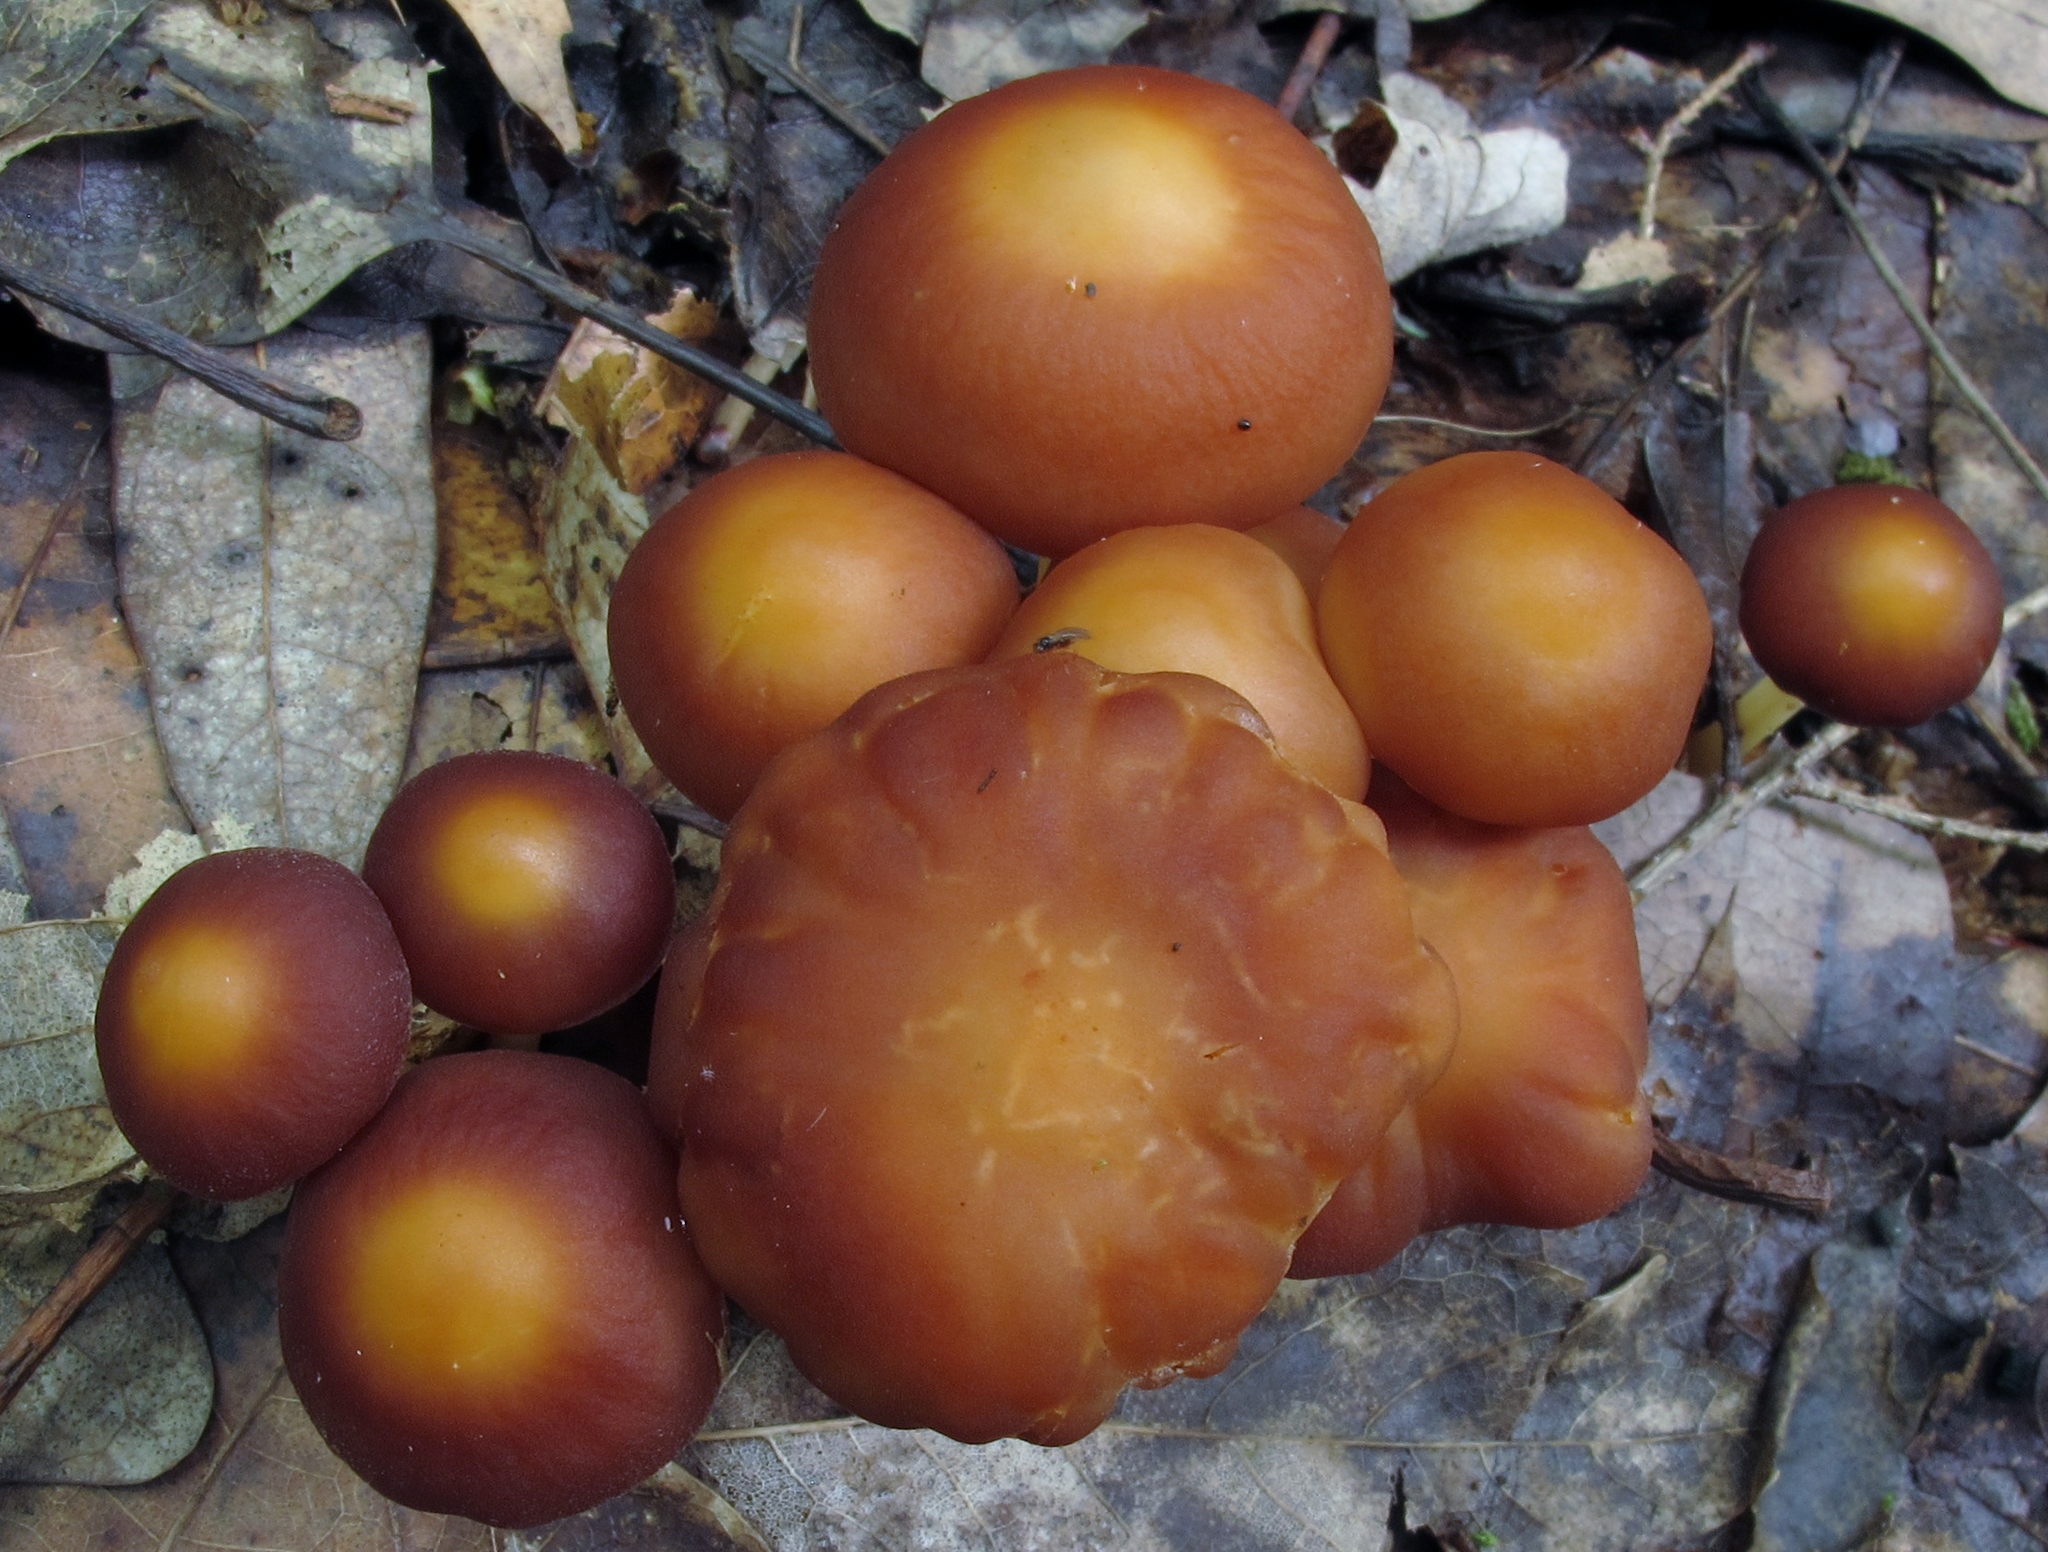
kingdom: Fungi
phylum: Basidiomycota
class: Agaricomycetes
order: Agaricales
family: Omphalotaceae
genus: Gymnopus
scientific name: Gymnopus dryophilus
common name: Penny top
